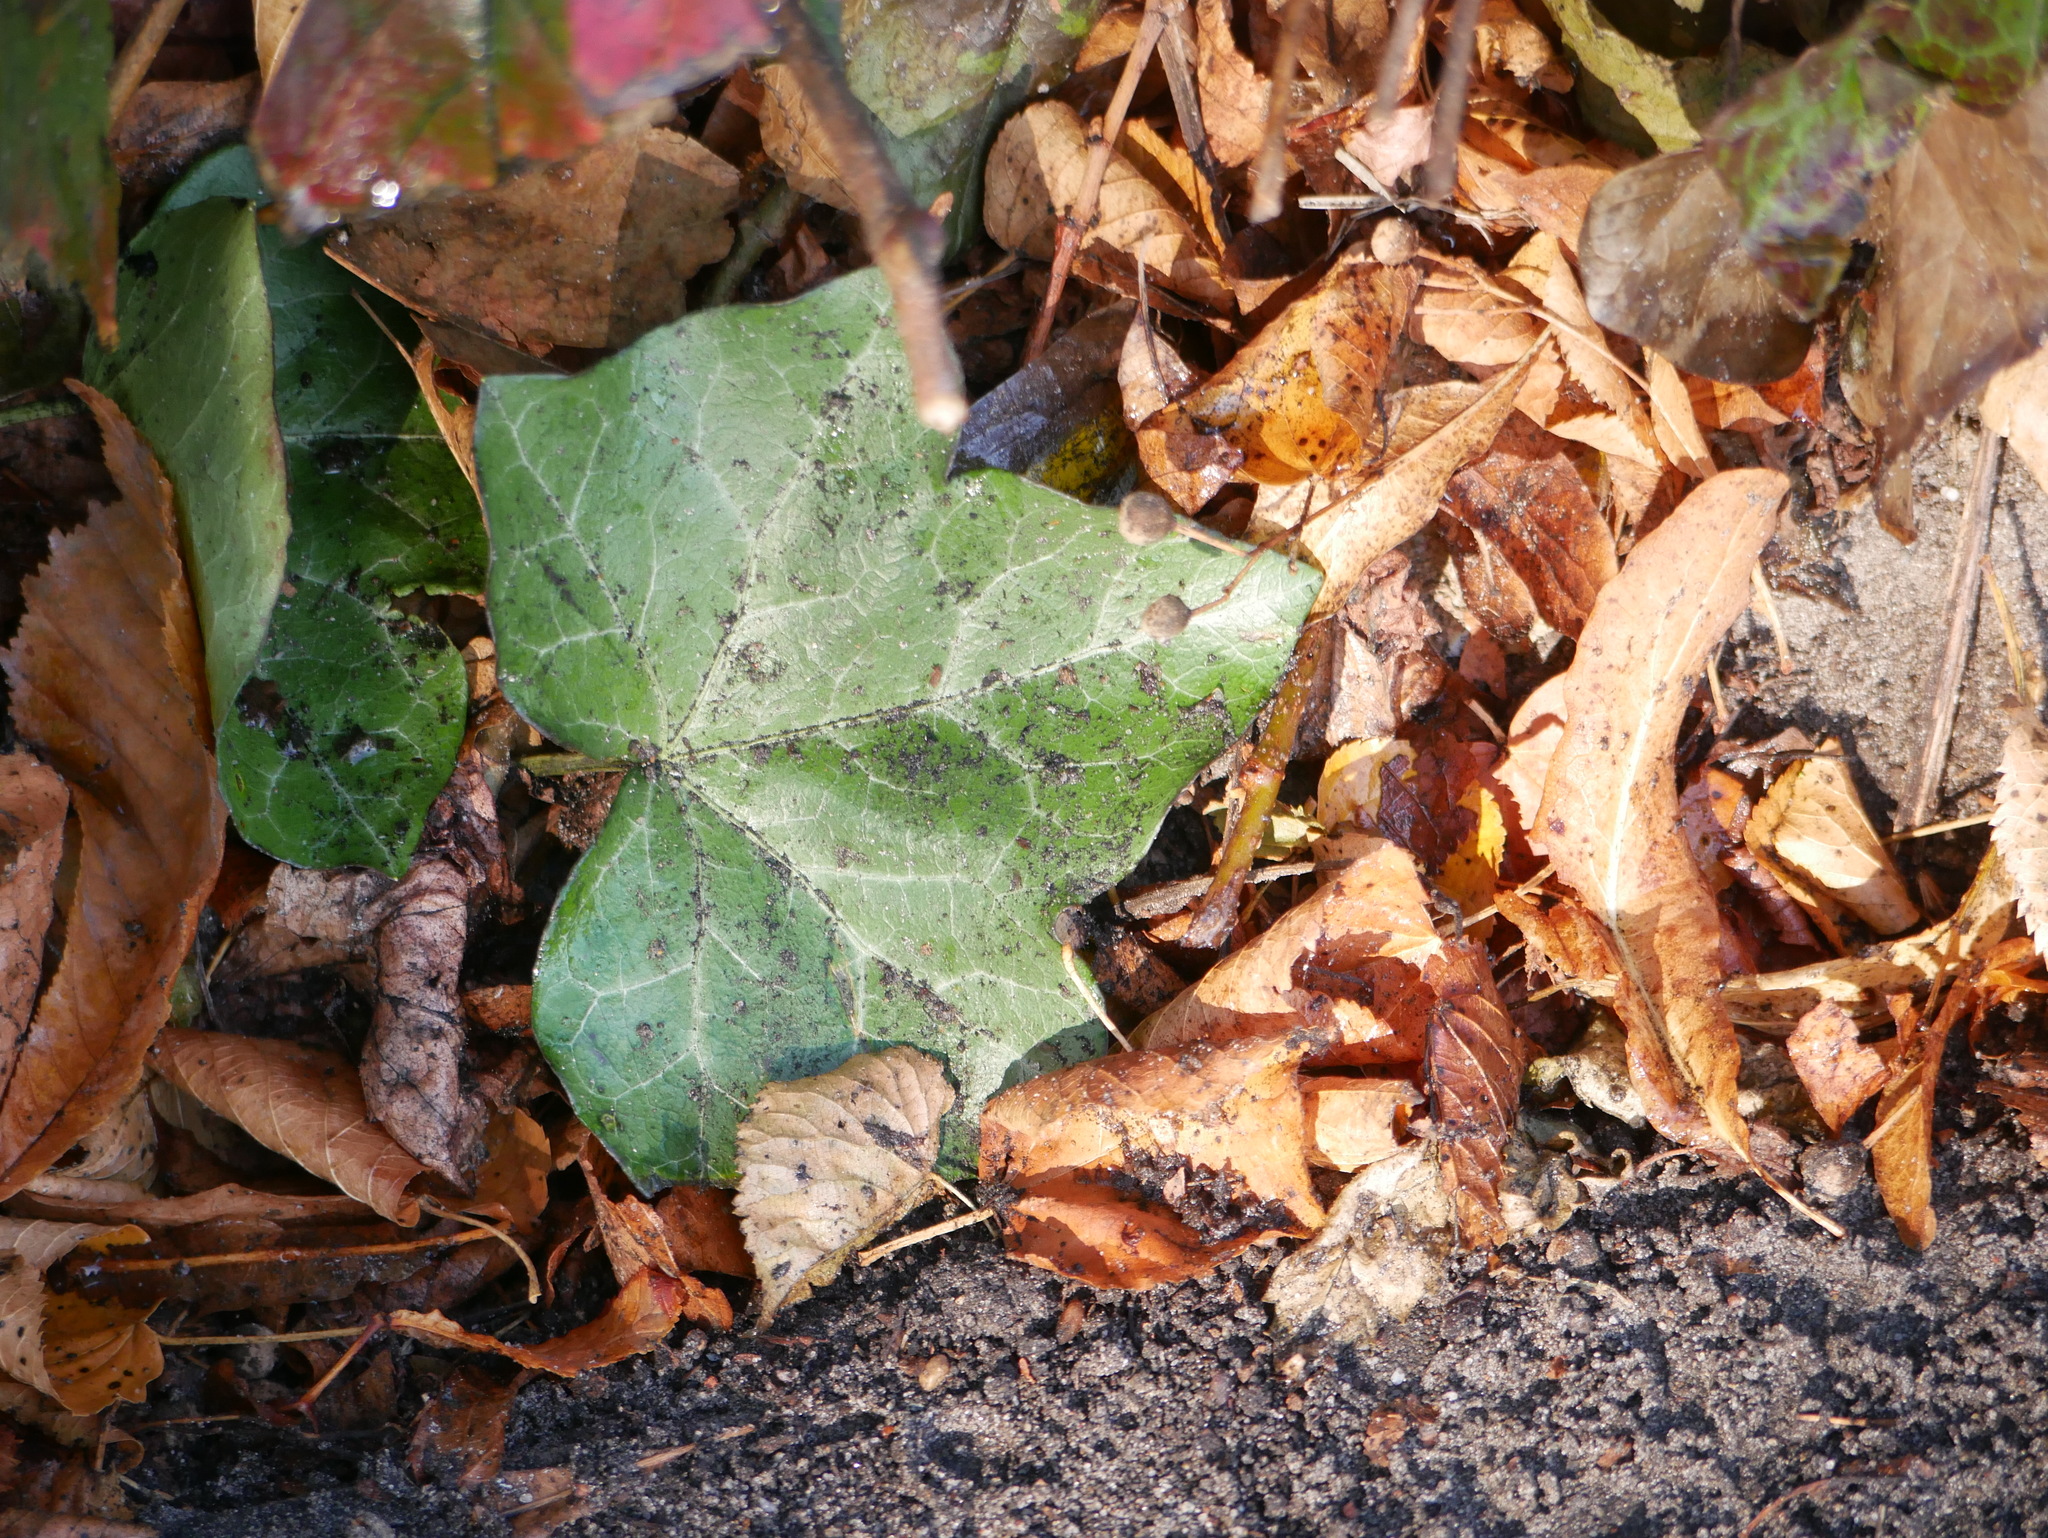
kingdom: Plantae
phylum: Tracheophyta
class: Magnoliopsida
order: Apiales
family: Araliaceae
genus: Hedera
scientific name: Hedera helix
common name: Ivy
